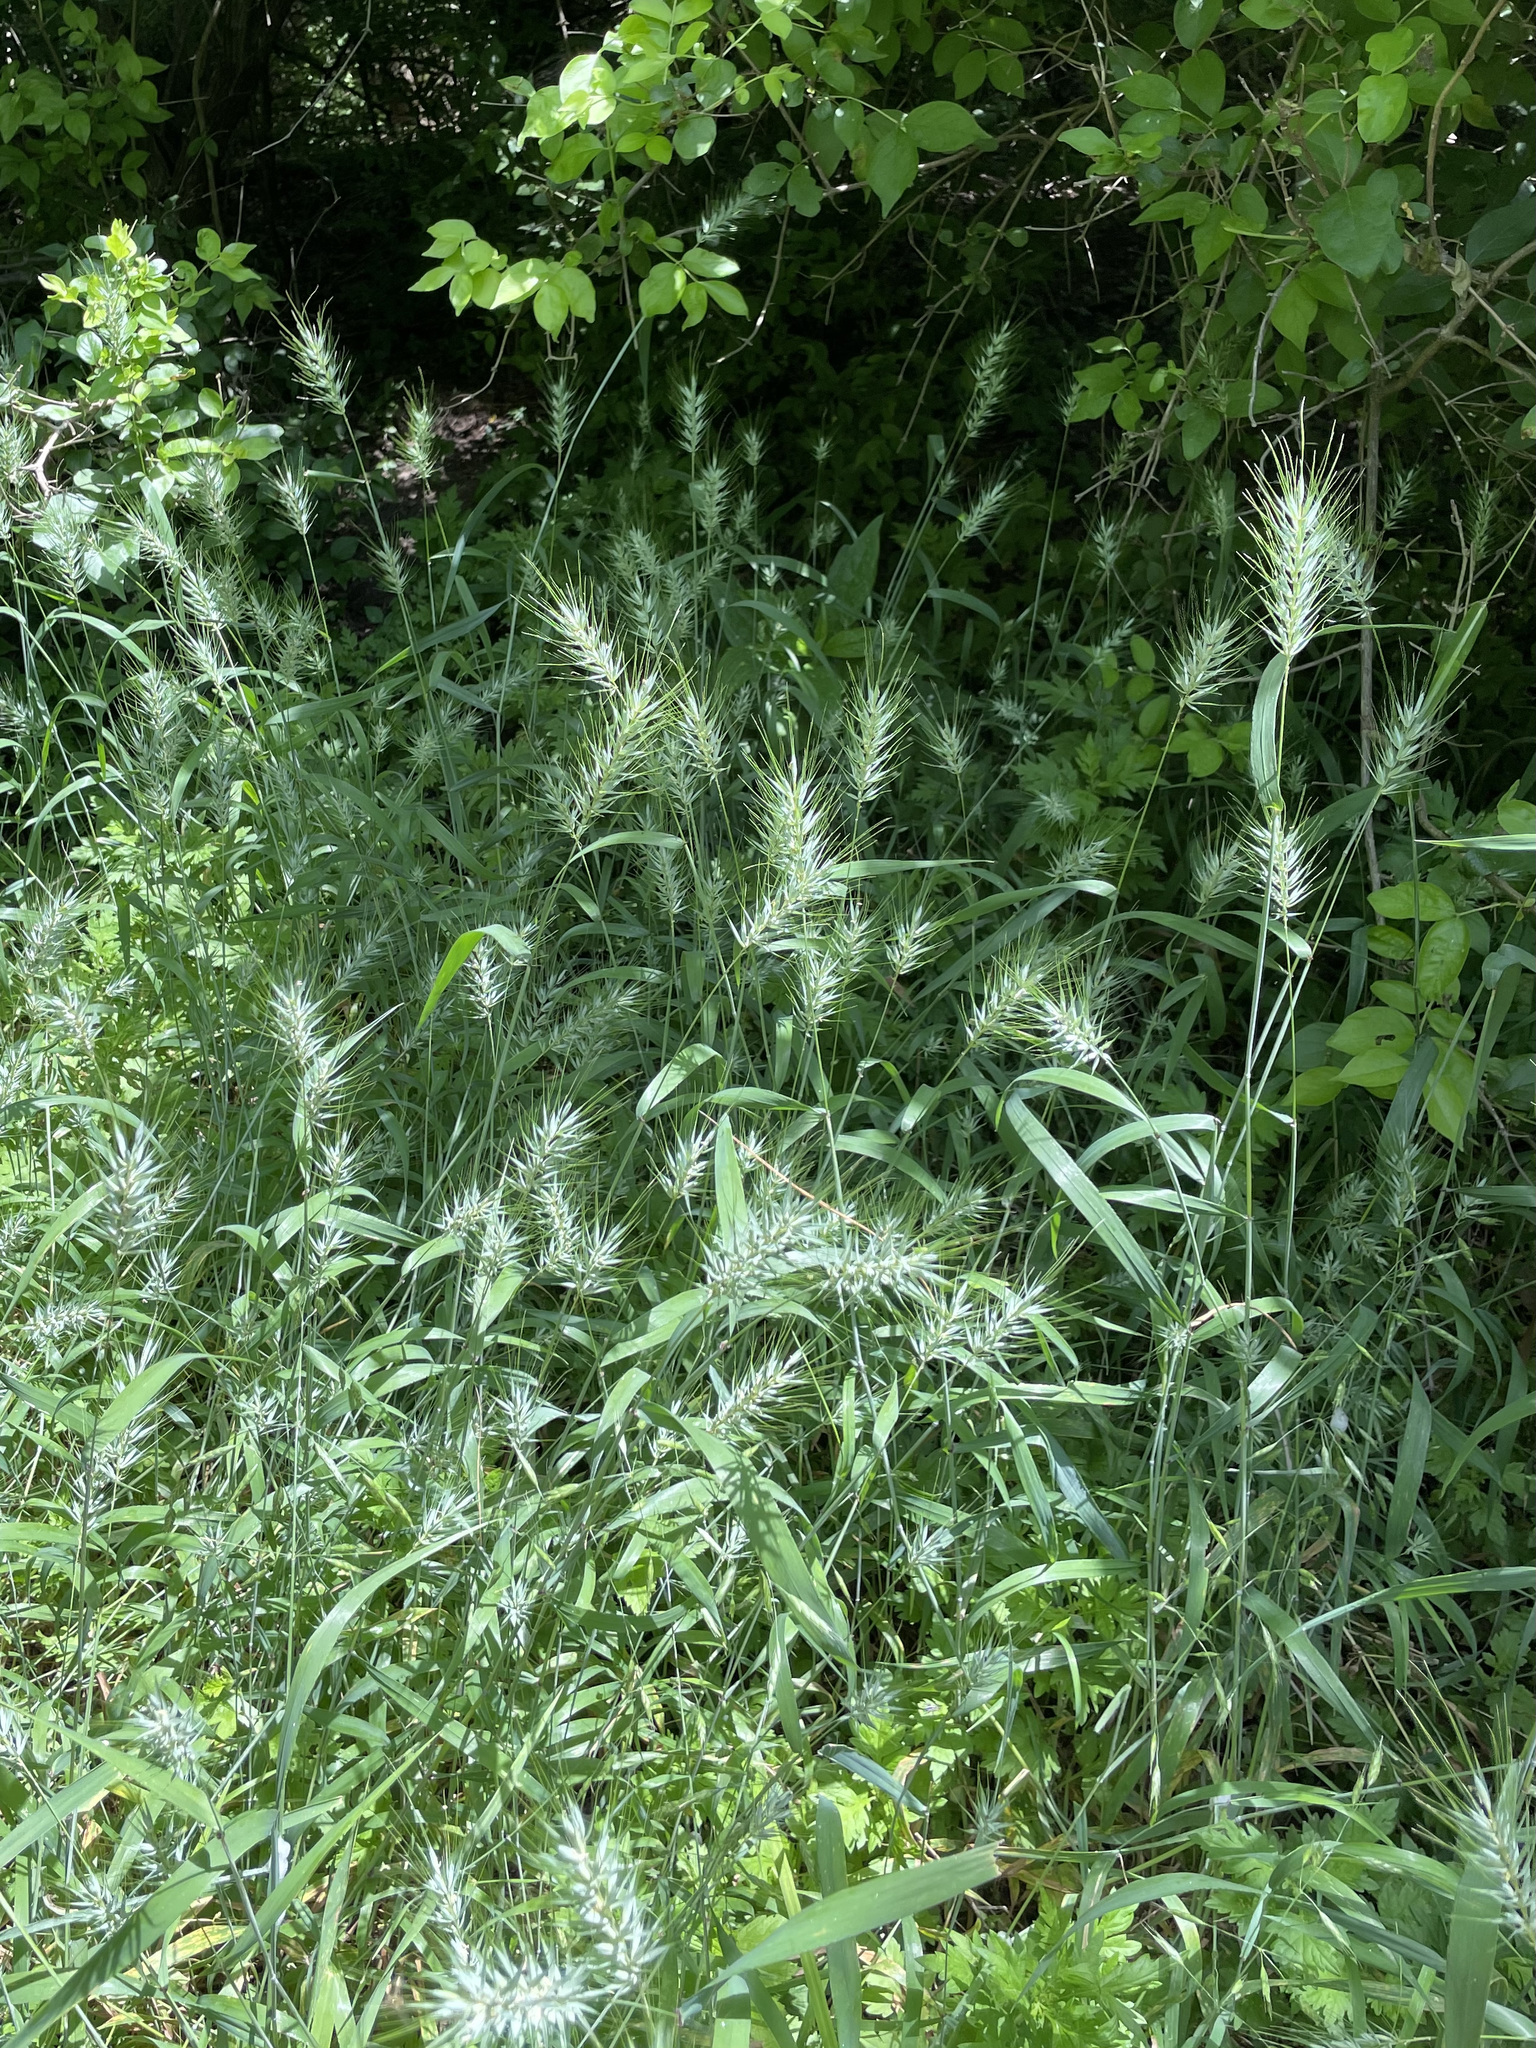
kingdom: Plantae
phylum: Tracheophyta
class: Liliopsida
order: Poales
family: Poaceae
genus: Elymus
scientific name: Elymus macgregorii
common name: Early wild rye
